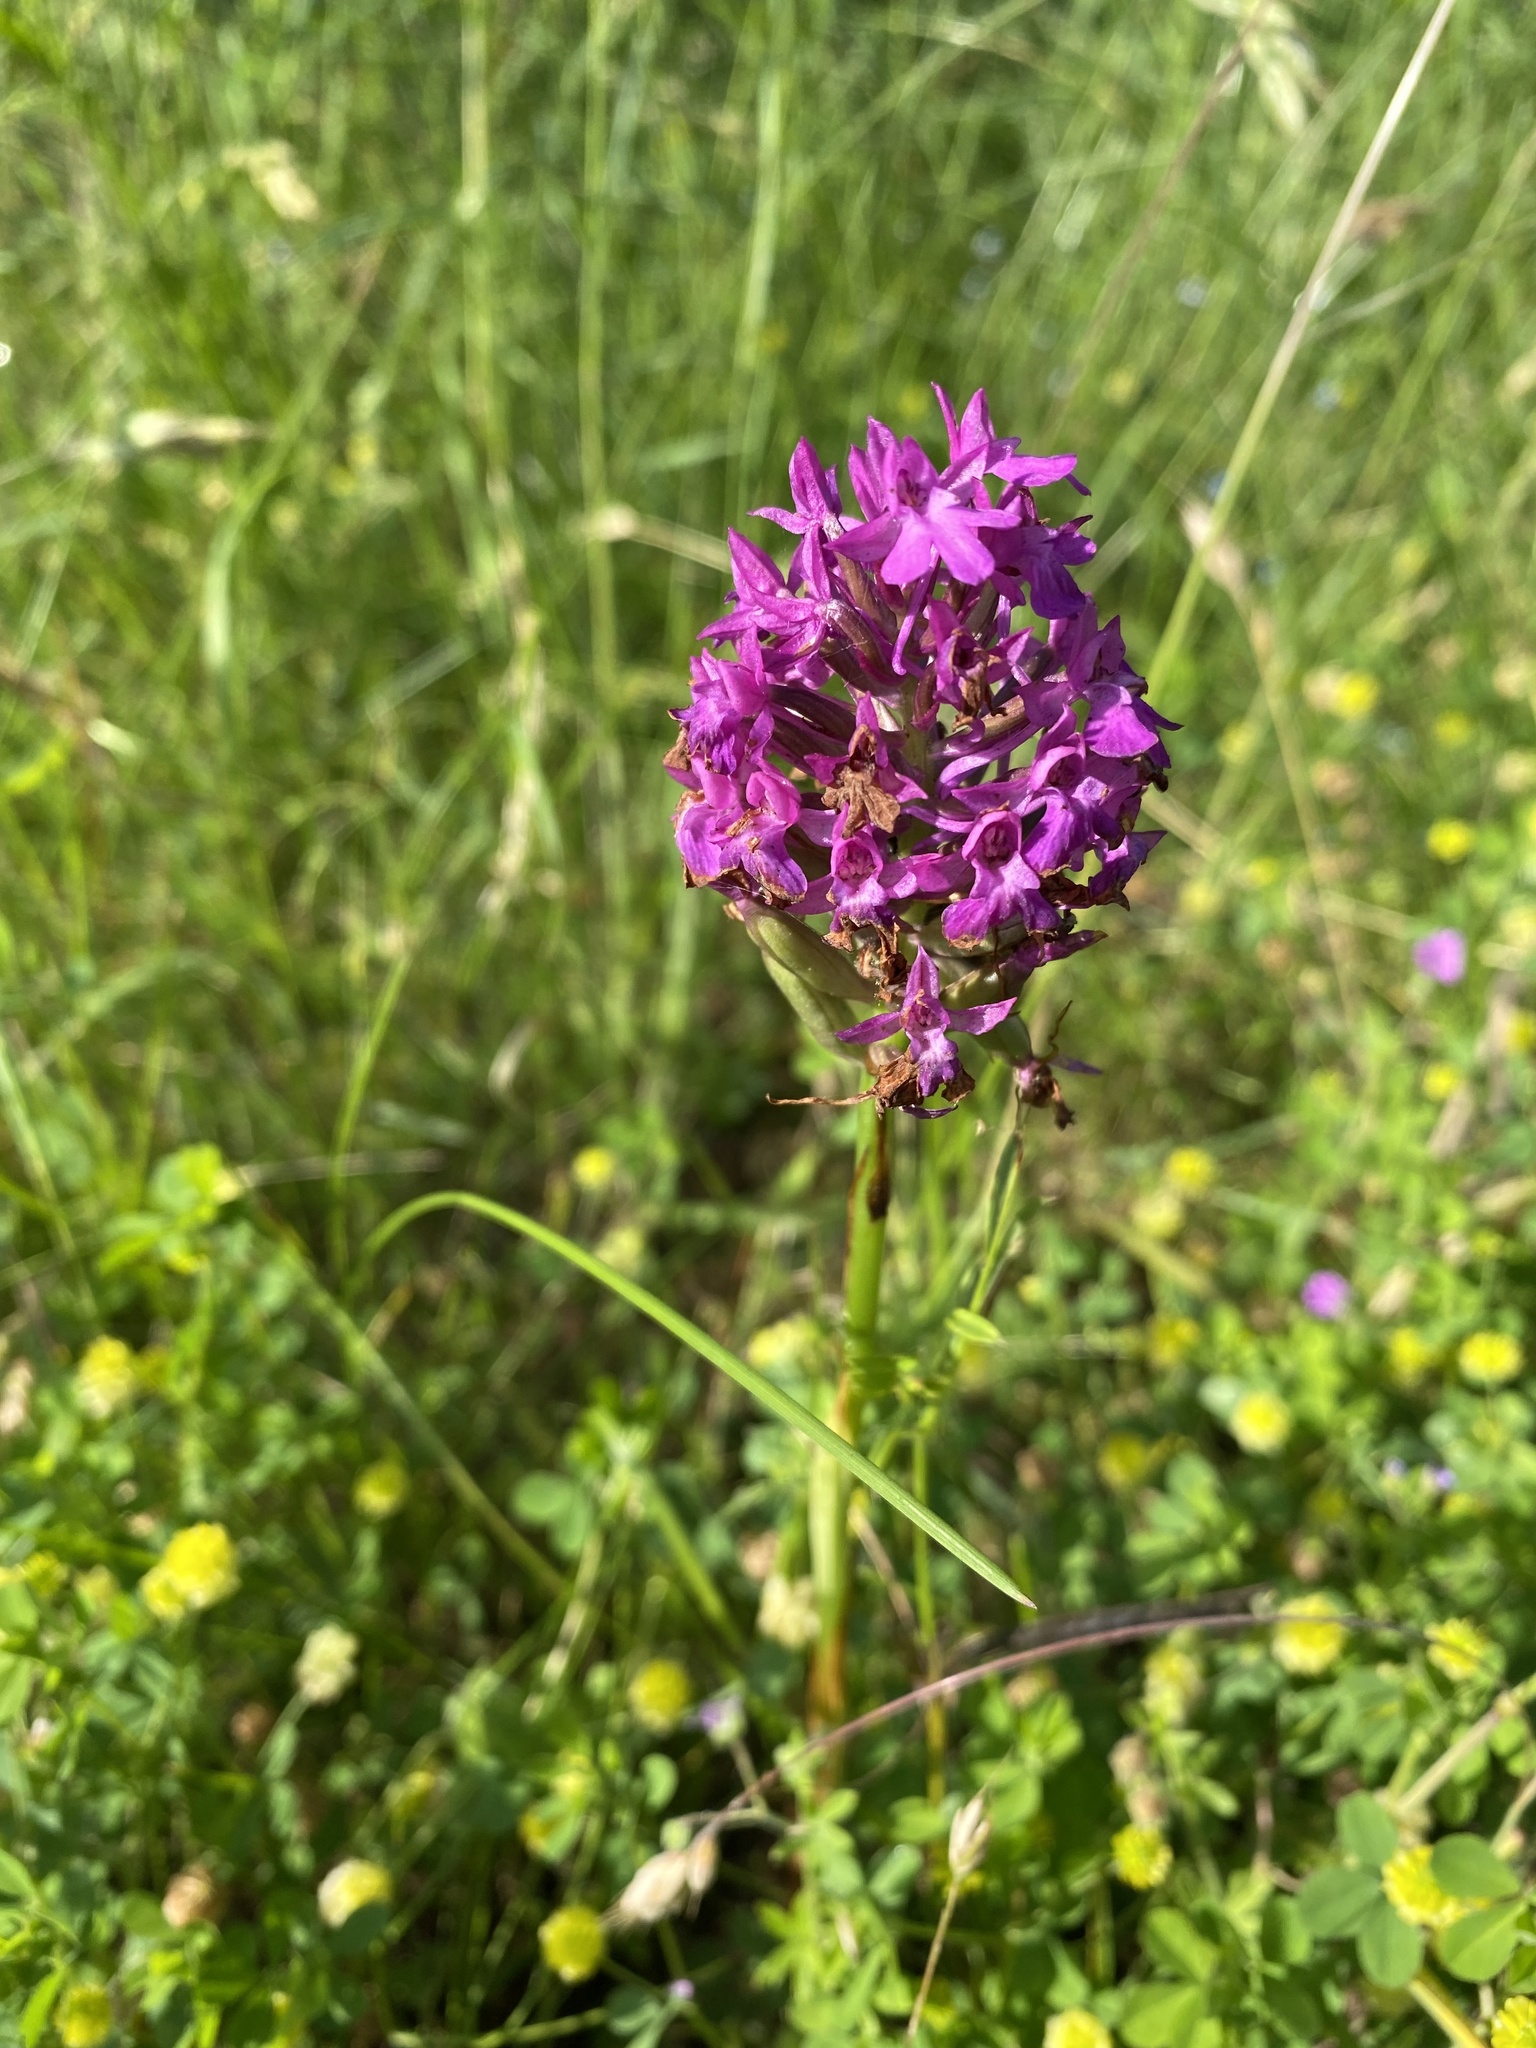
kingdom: Plantae
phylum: Tracheophyta
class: Liliopsida
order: Asparagales
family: Orchidaceae
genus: Anacamptis
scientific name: Anacamptis pyramidalis
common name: Pyramidal orchid
